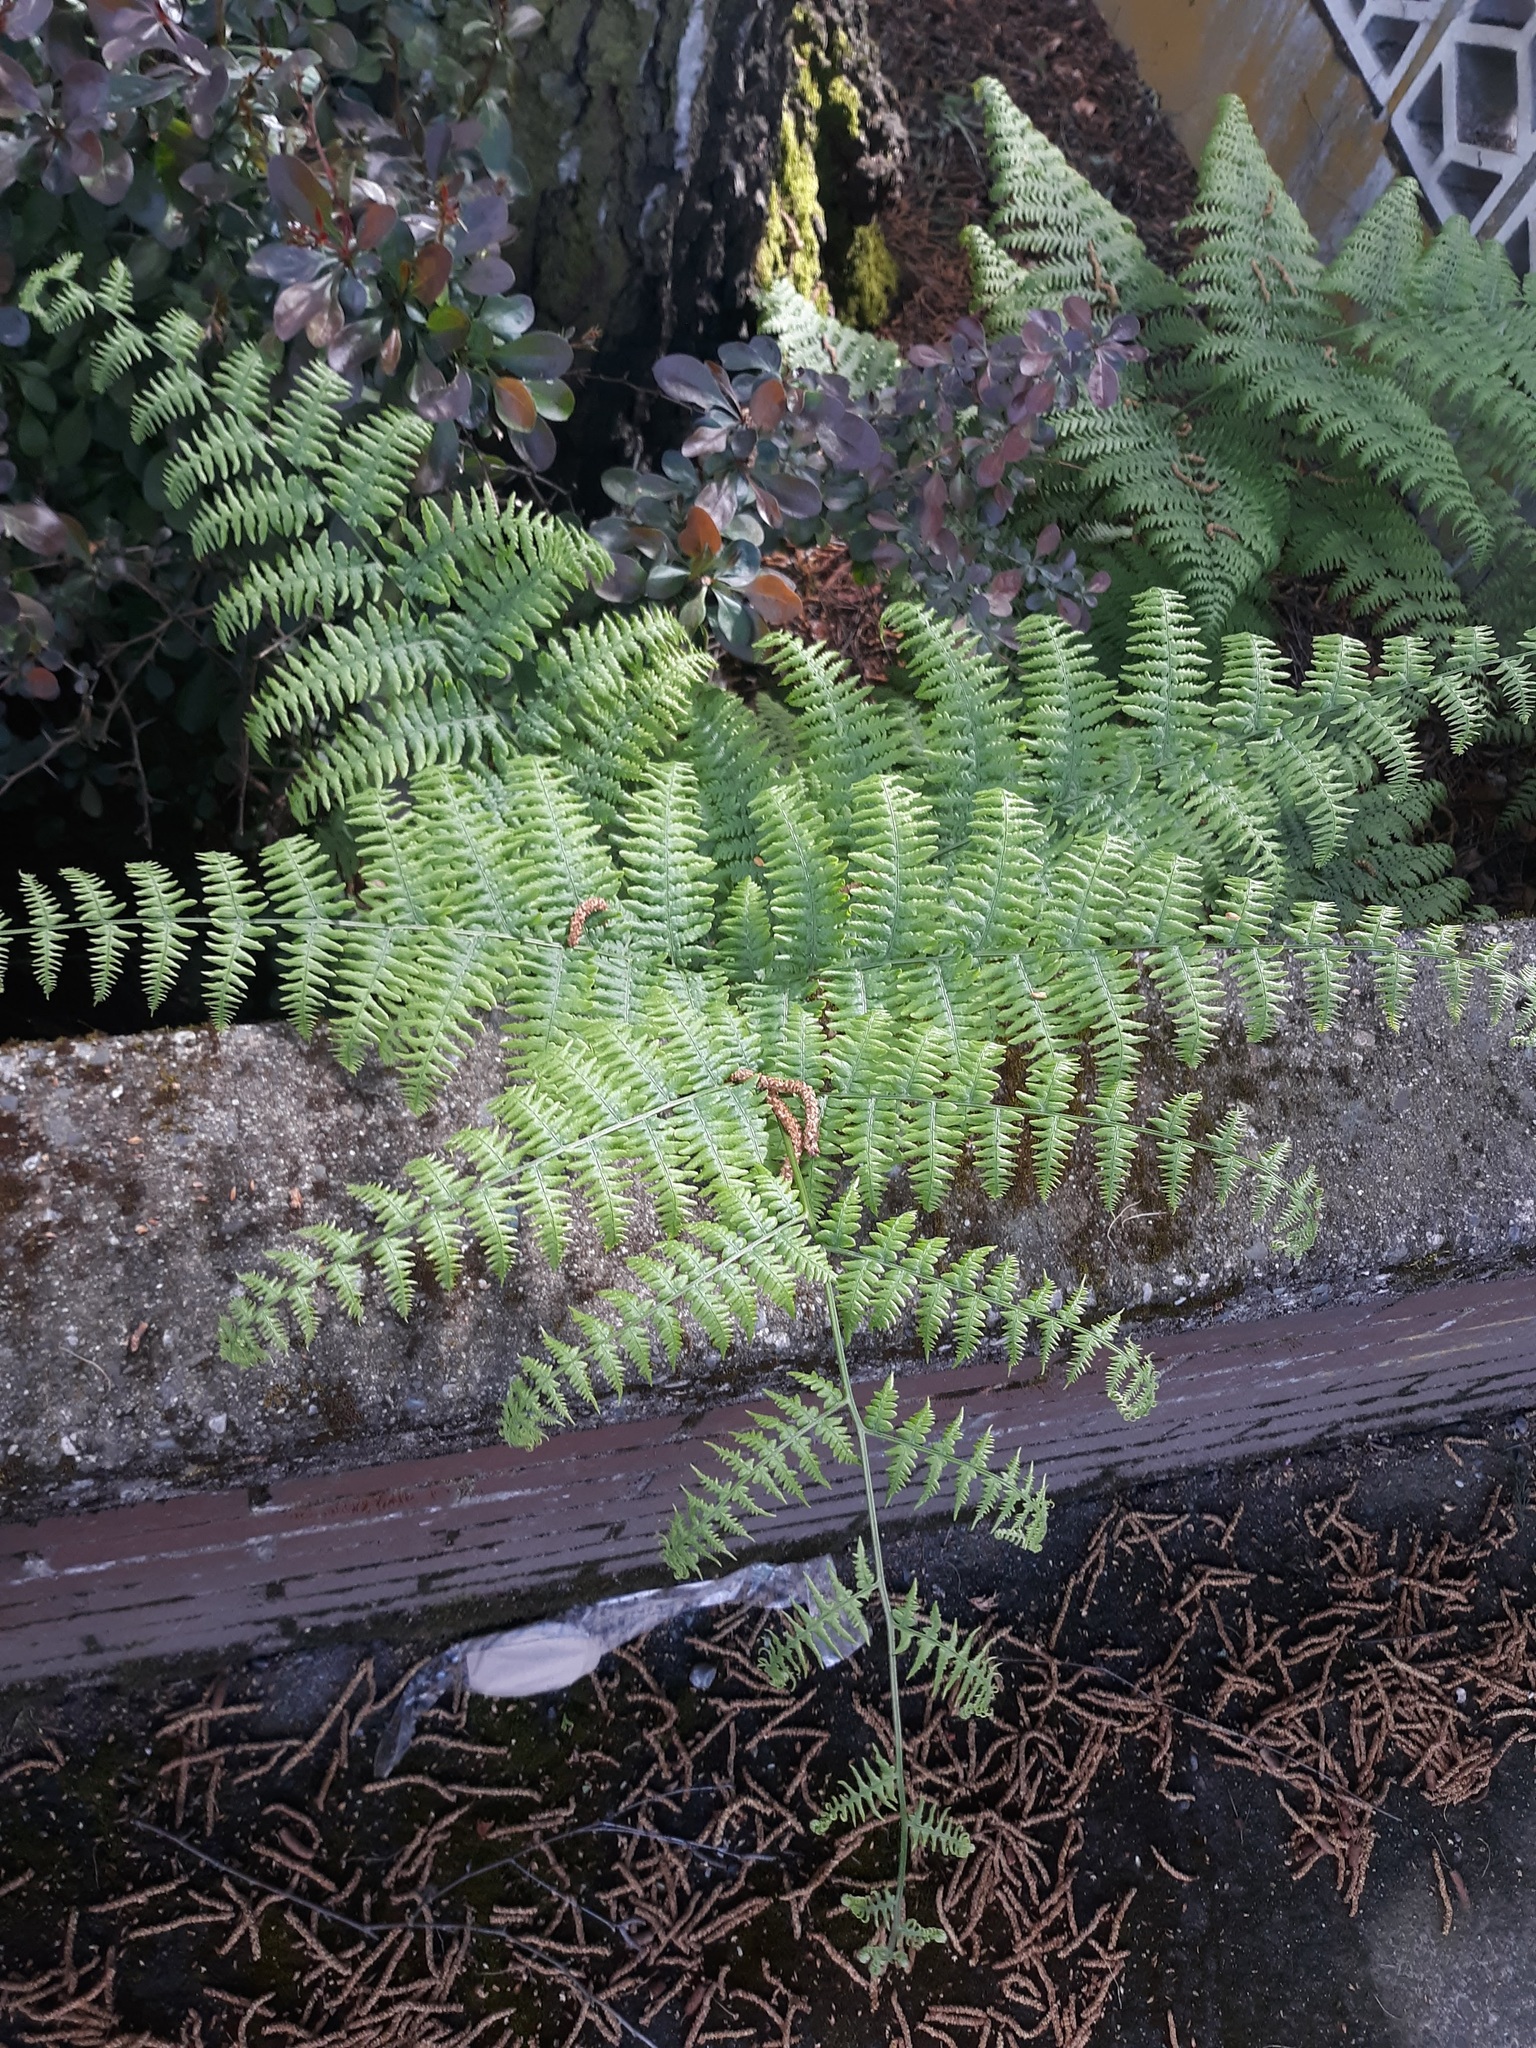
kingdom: Plantae
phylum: Tracheophyta
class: Polypodiopsida
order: Polypodiales
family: Dennstaedtiaceae
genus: Pteridium
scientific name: Pteridium aquilinum
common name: Bracken
